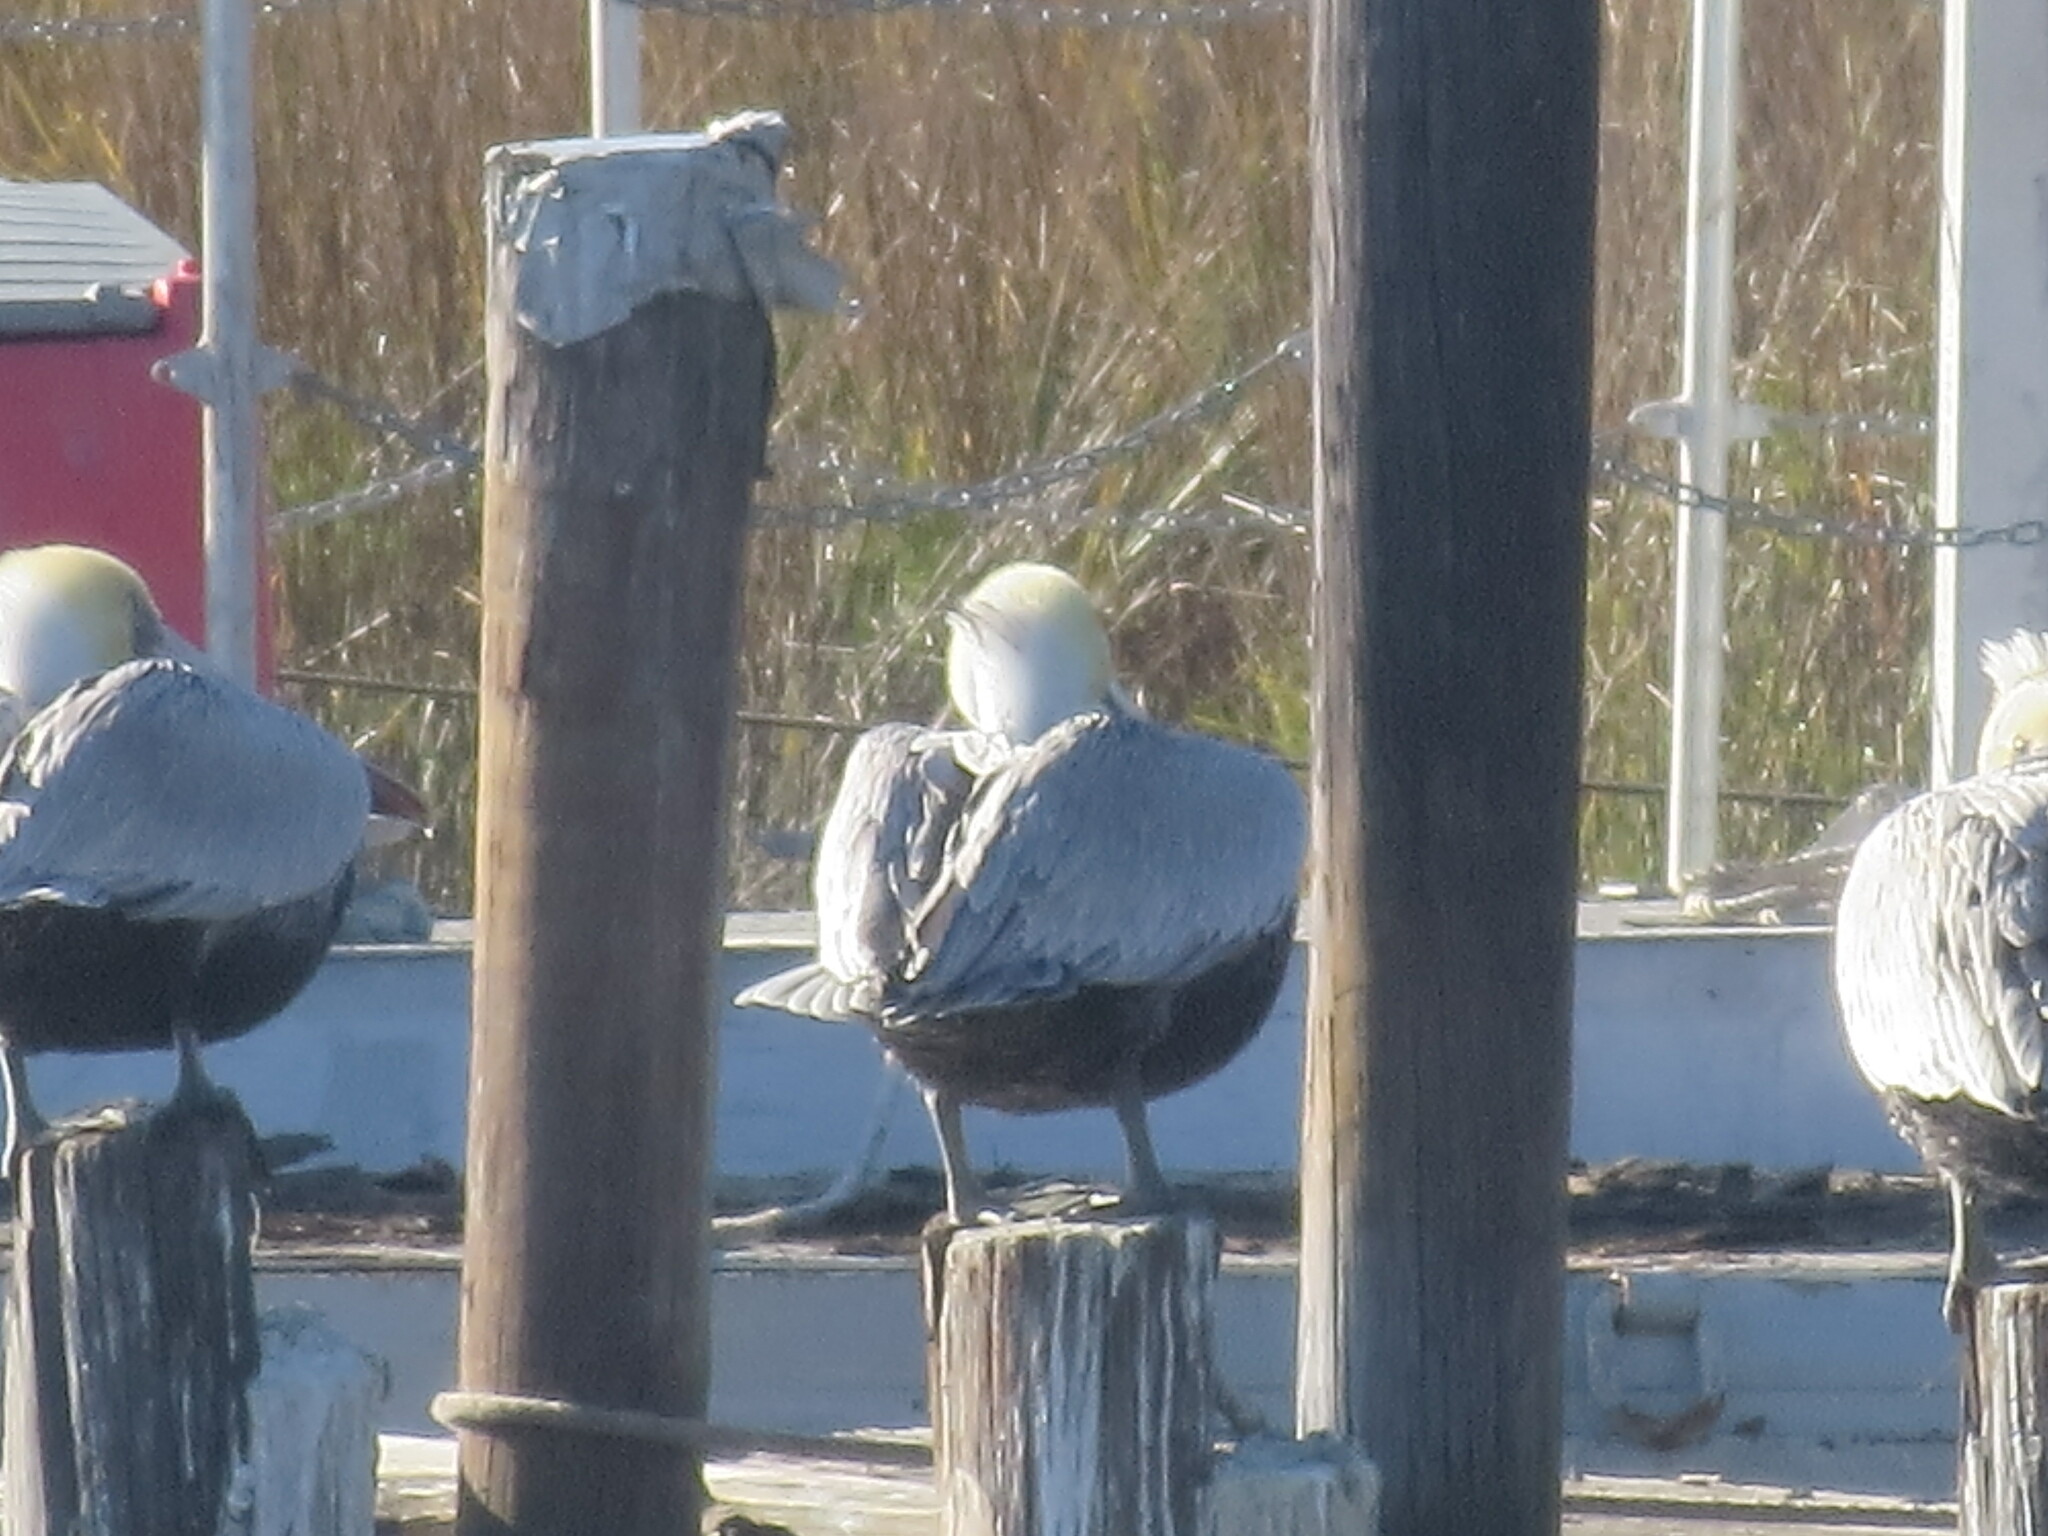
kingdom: Animalia
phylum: Chordata
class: Aves
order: Pelecaniformes
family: Pelecanidae
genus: Pelecanus
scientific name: Pelecanus occidentalis
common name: Brown pelican
